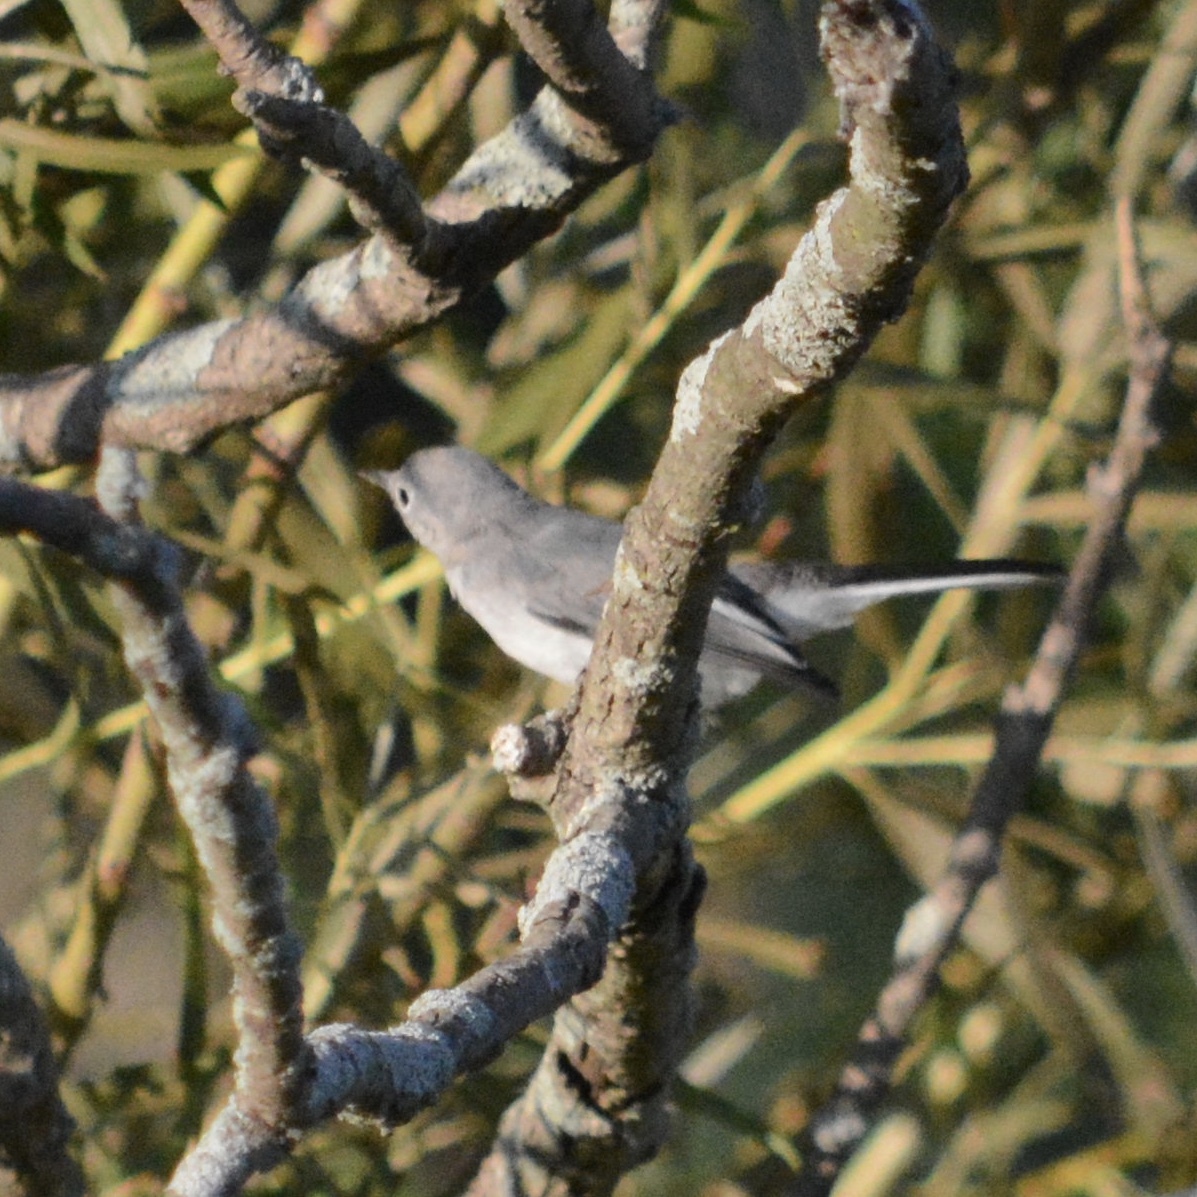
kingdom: Animalia
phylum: Chordata
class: Aves
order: Passeriformes
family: Polioptilidae
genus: Polioptila
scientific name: Polioptila caerulea
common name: Blue-gray gnatcatcher
